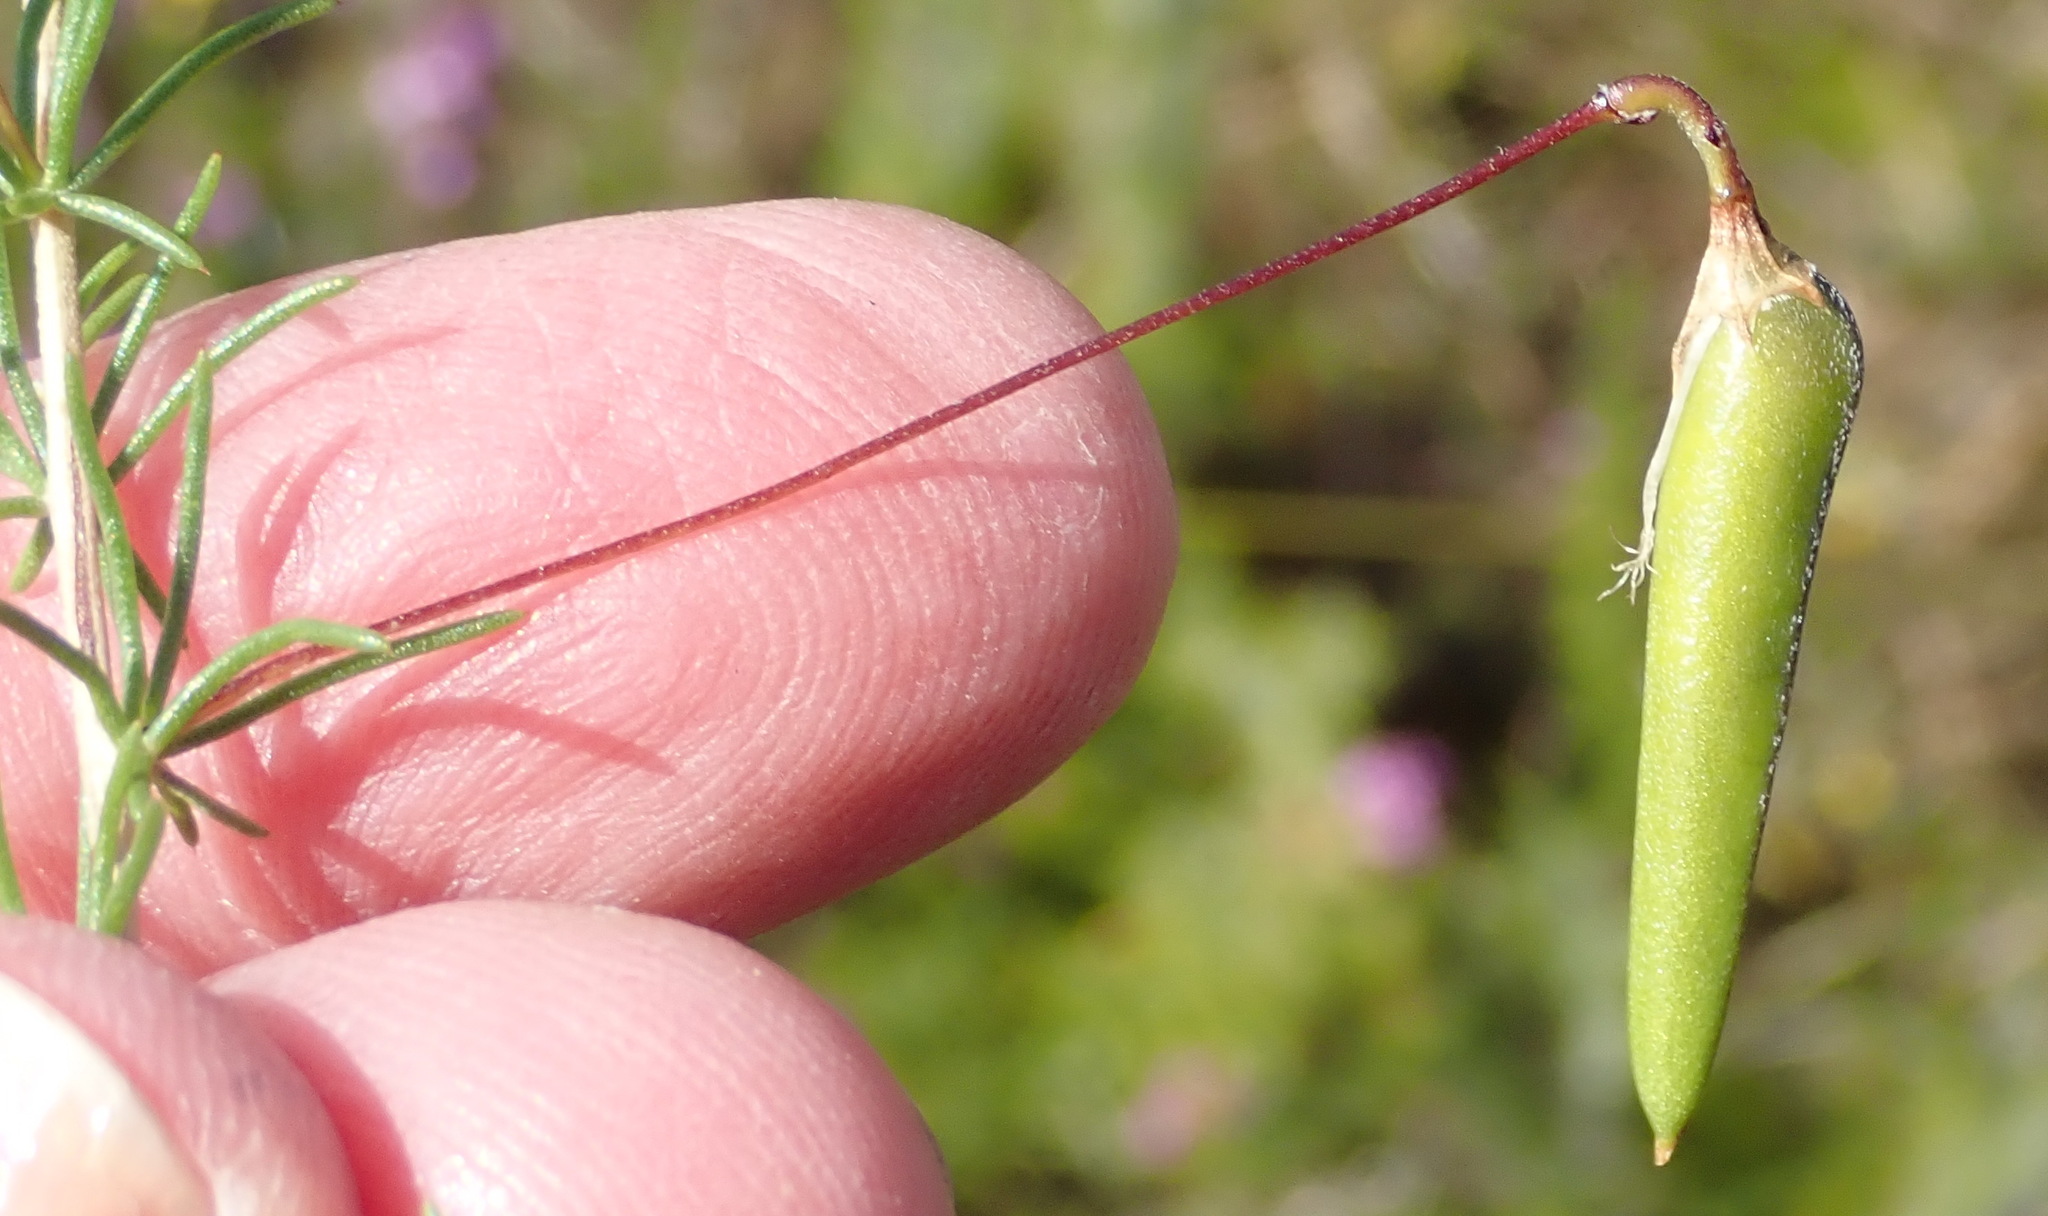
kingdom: Plantae
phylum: Tracheophyta
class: Magnoliopsida
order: Fabales
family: Fabaceae
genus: Aspalathus
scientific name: Aspalathus biflora
